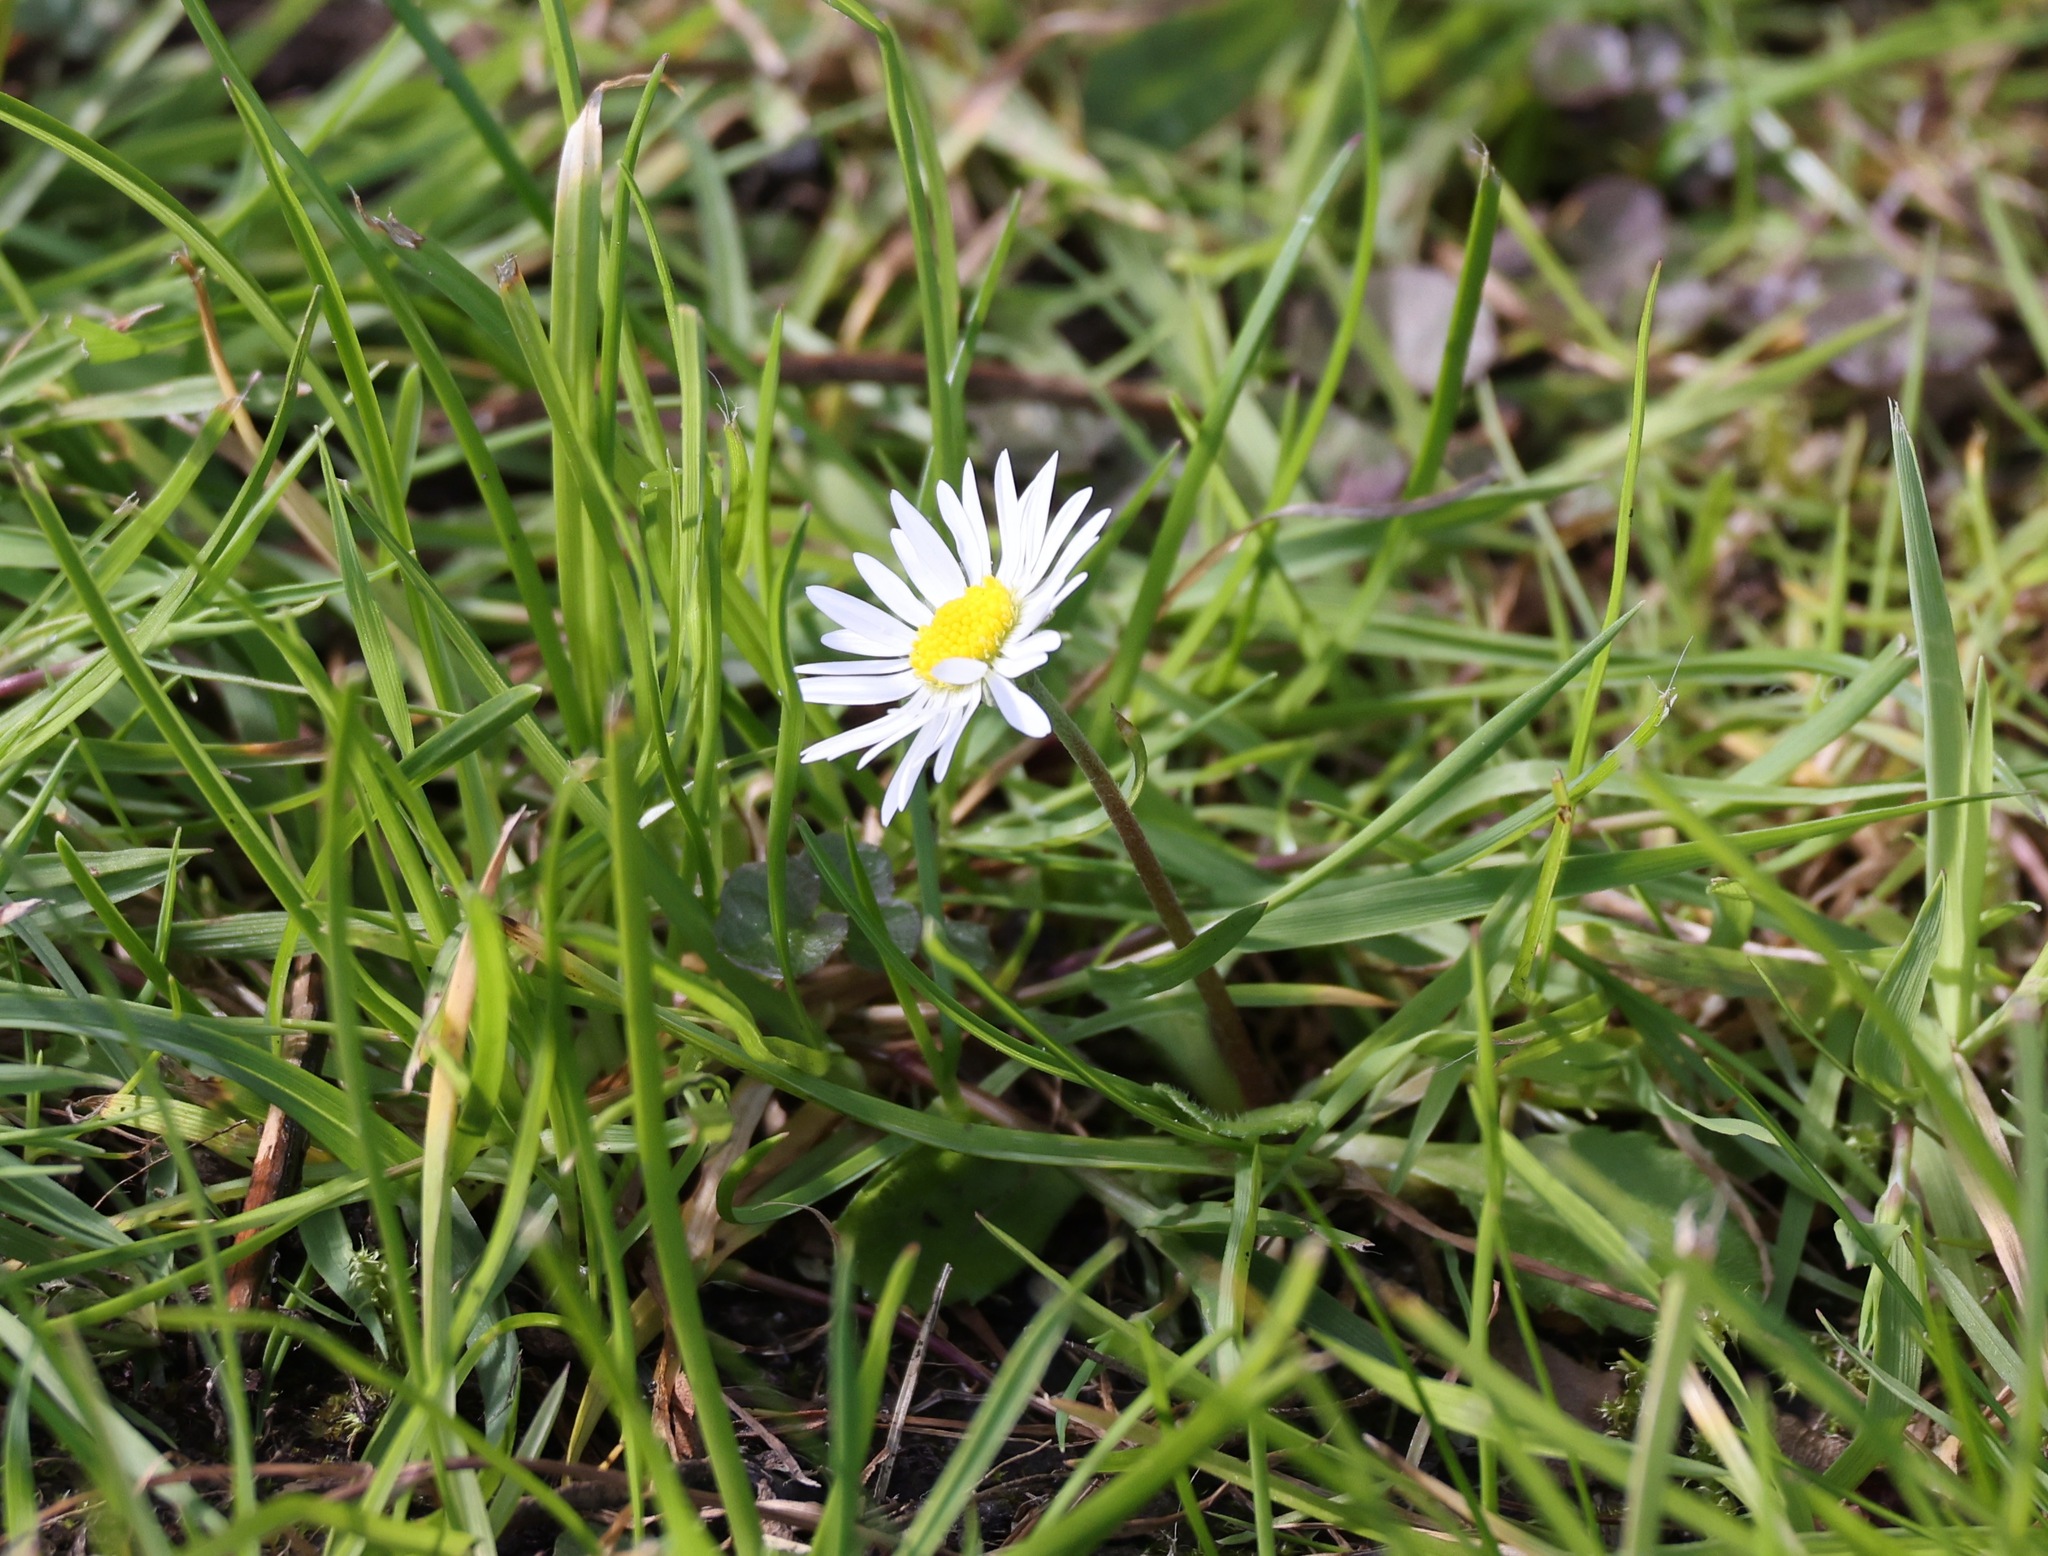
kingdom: Plantae
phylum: Tracheophyta
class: Magnoliopsida
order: Asterales
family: Asteraceae
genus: Bellis
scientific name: Bellis perennis
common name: Lawndaisy
